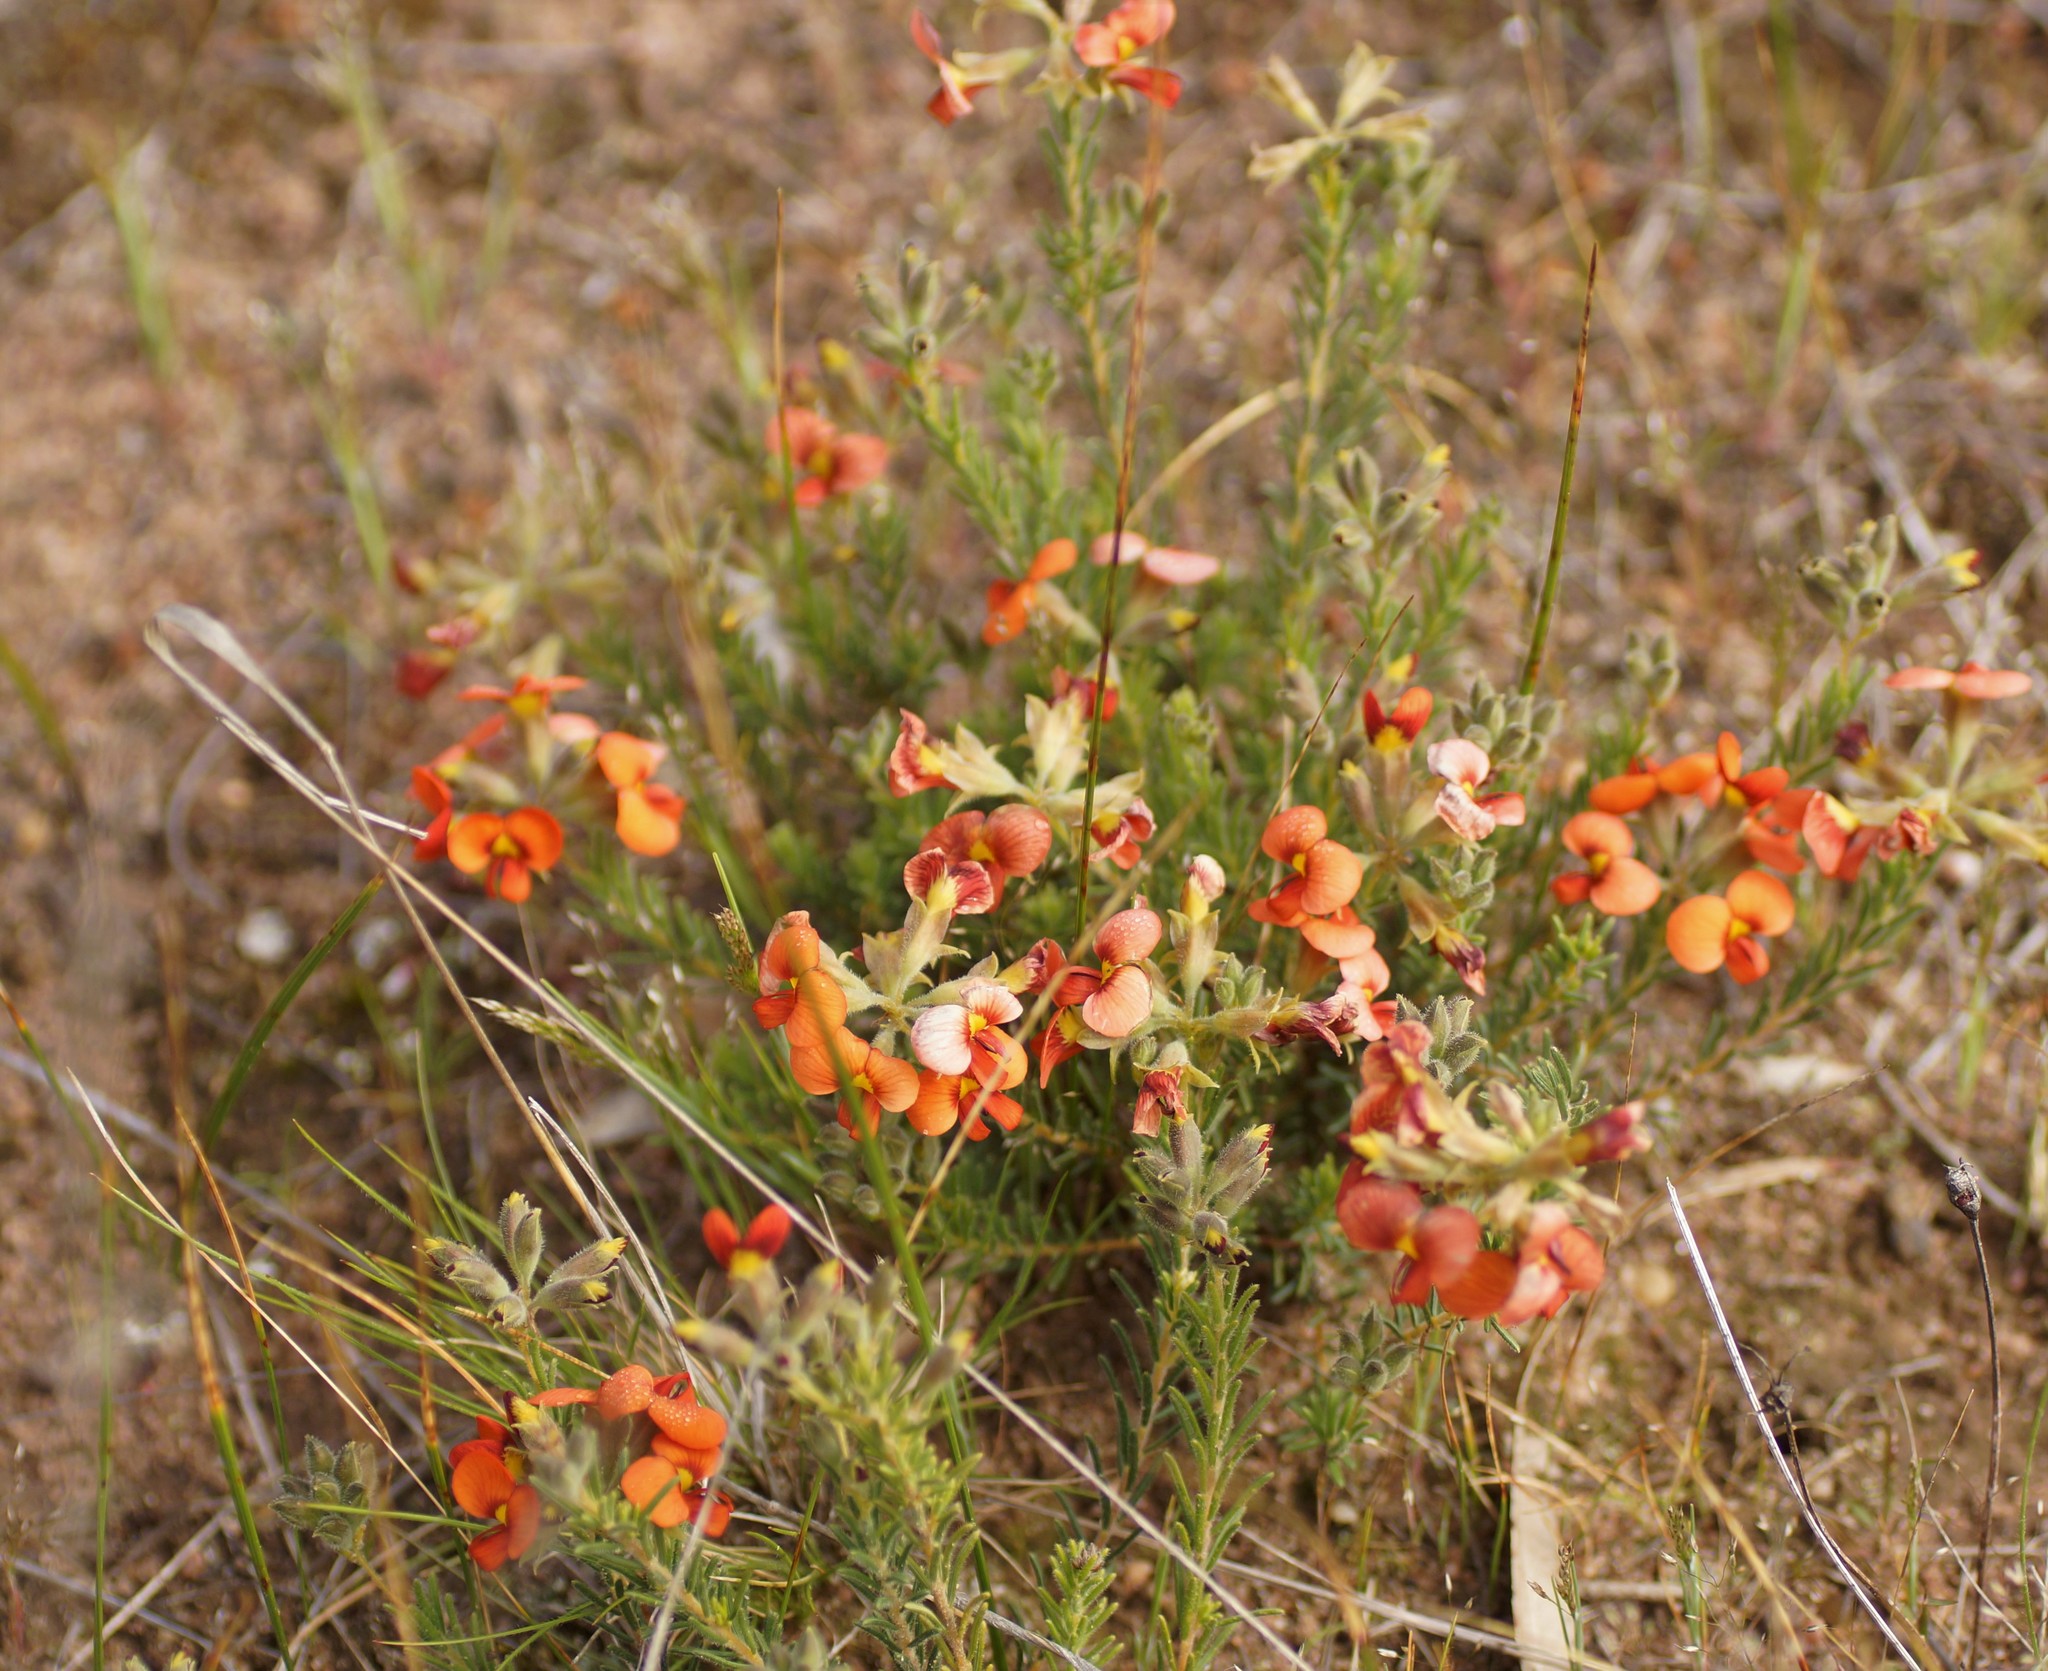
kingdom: Plantae
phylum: Tracheophyta
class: Magnoliopsida
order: Fabales
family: Fabaceae
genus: Dillwynia
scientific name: Dillwynia hispida
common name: Red parrot-pea
